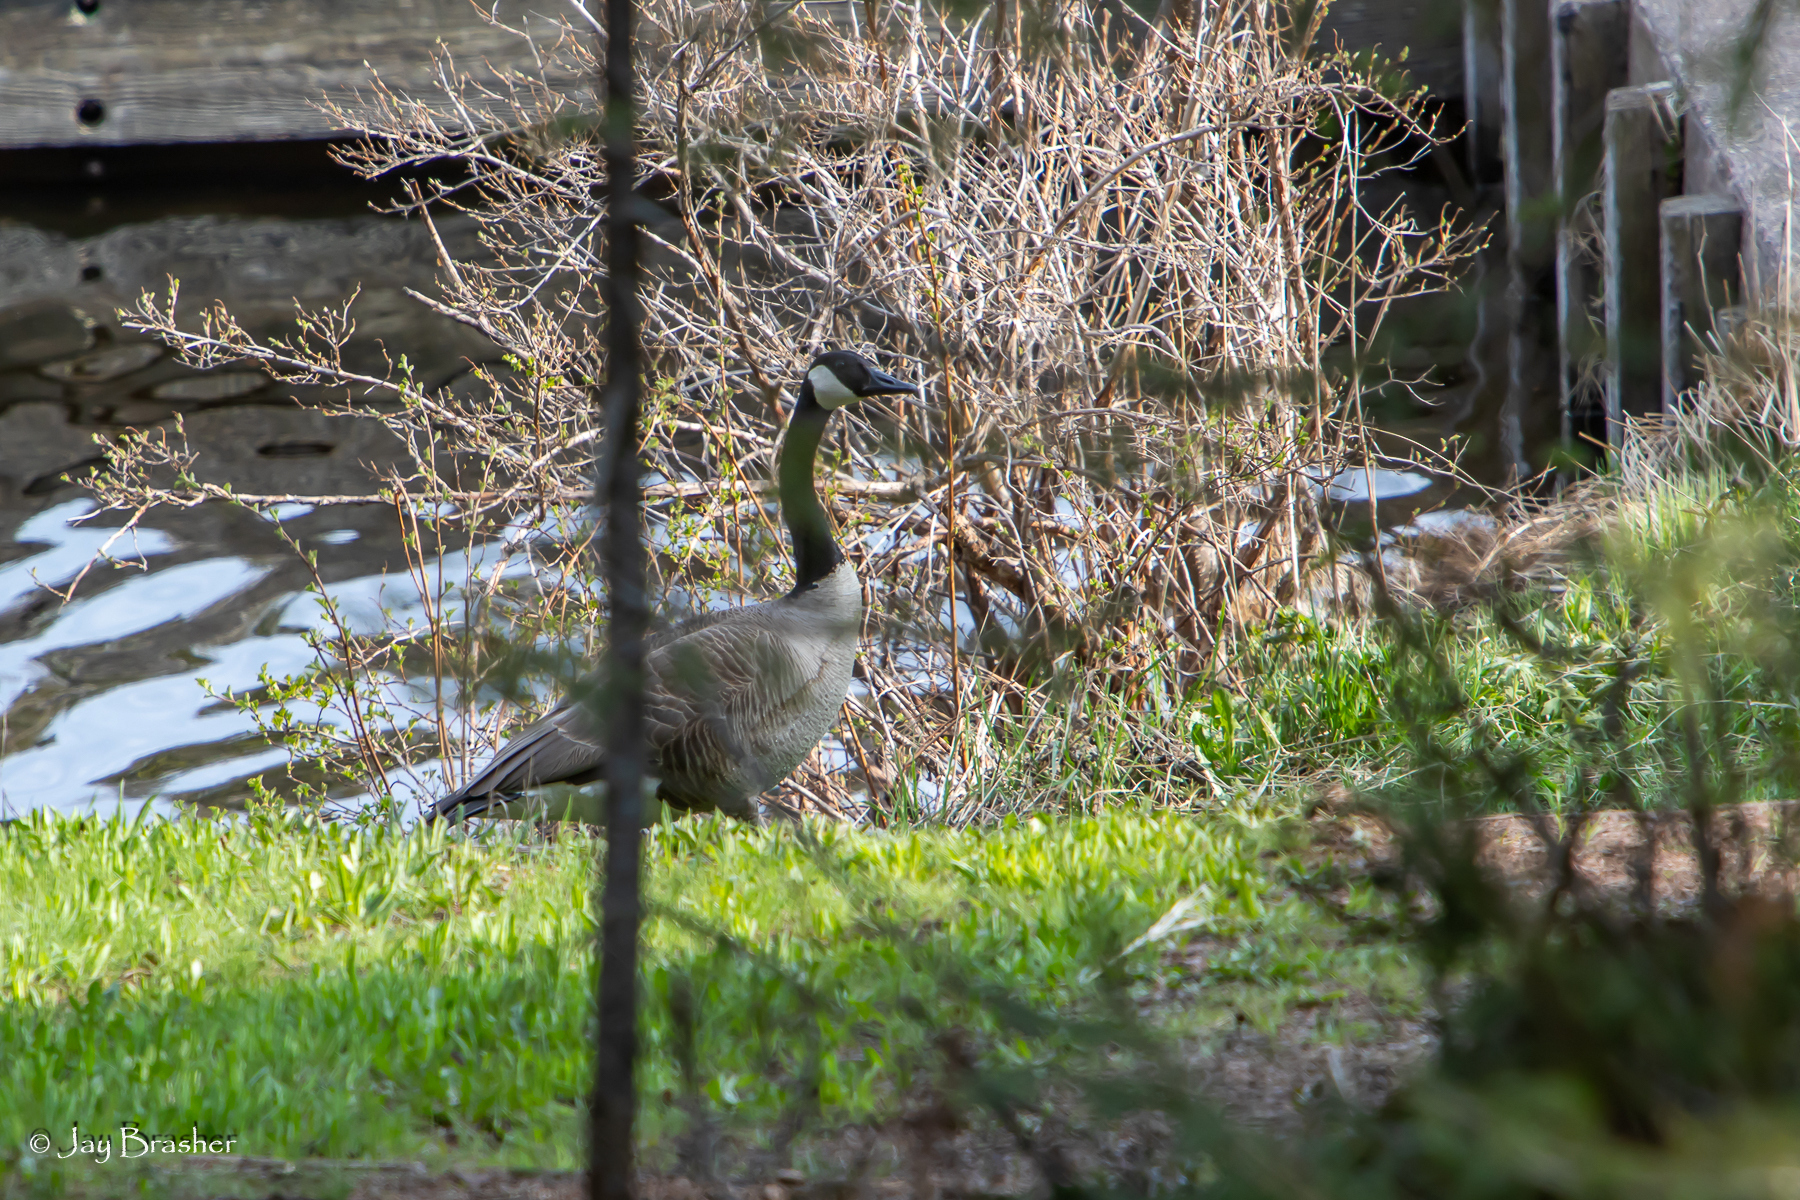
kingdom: Animalia
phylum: Chordata
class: Aves
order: Anseriformes
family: Anatidae
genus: Branta
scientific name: Branta canadensis
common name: Canada goose
